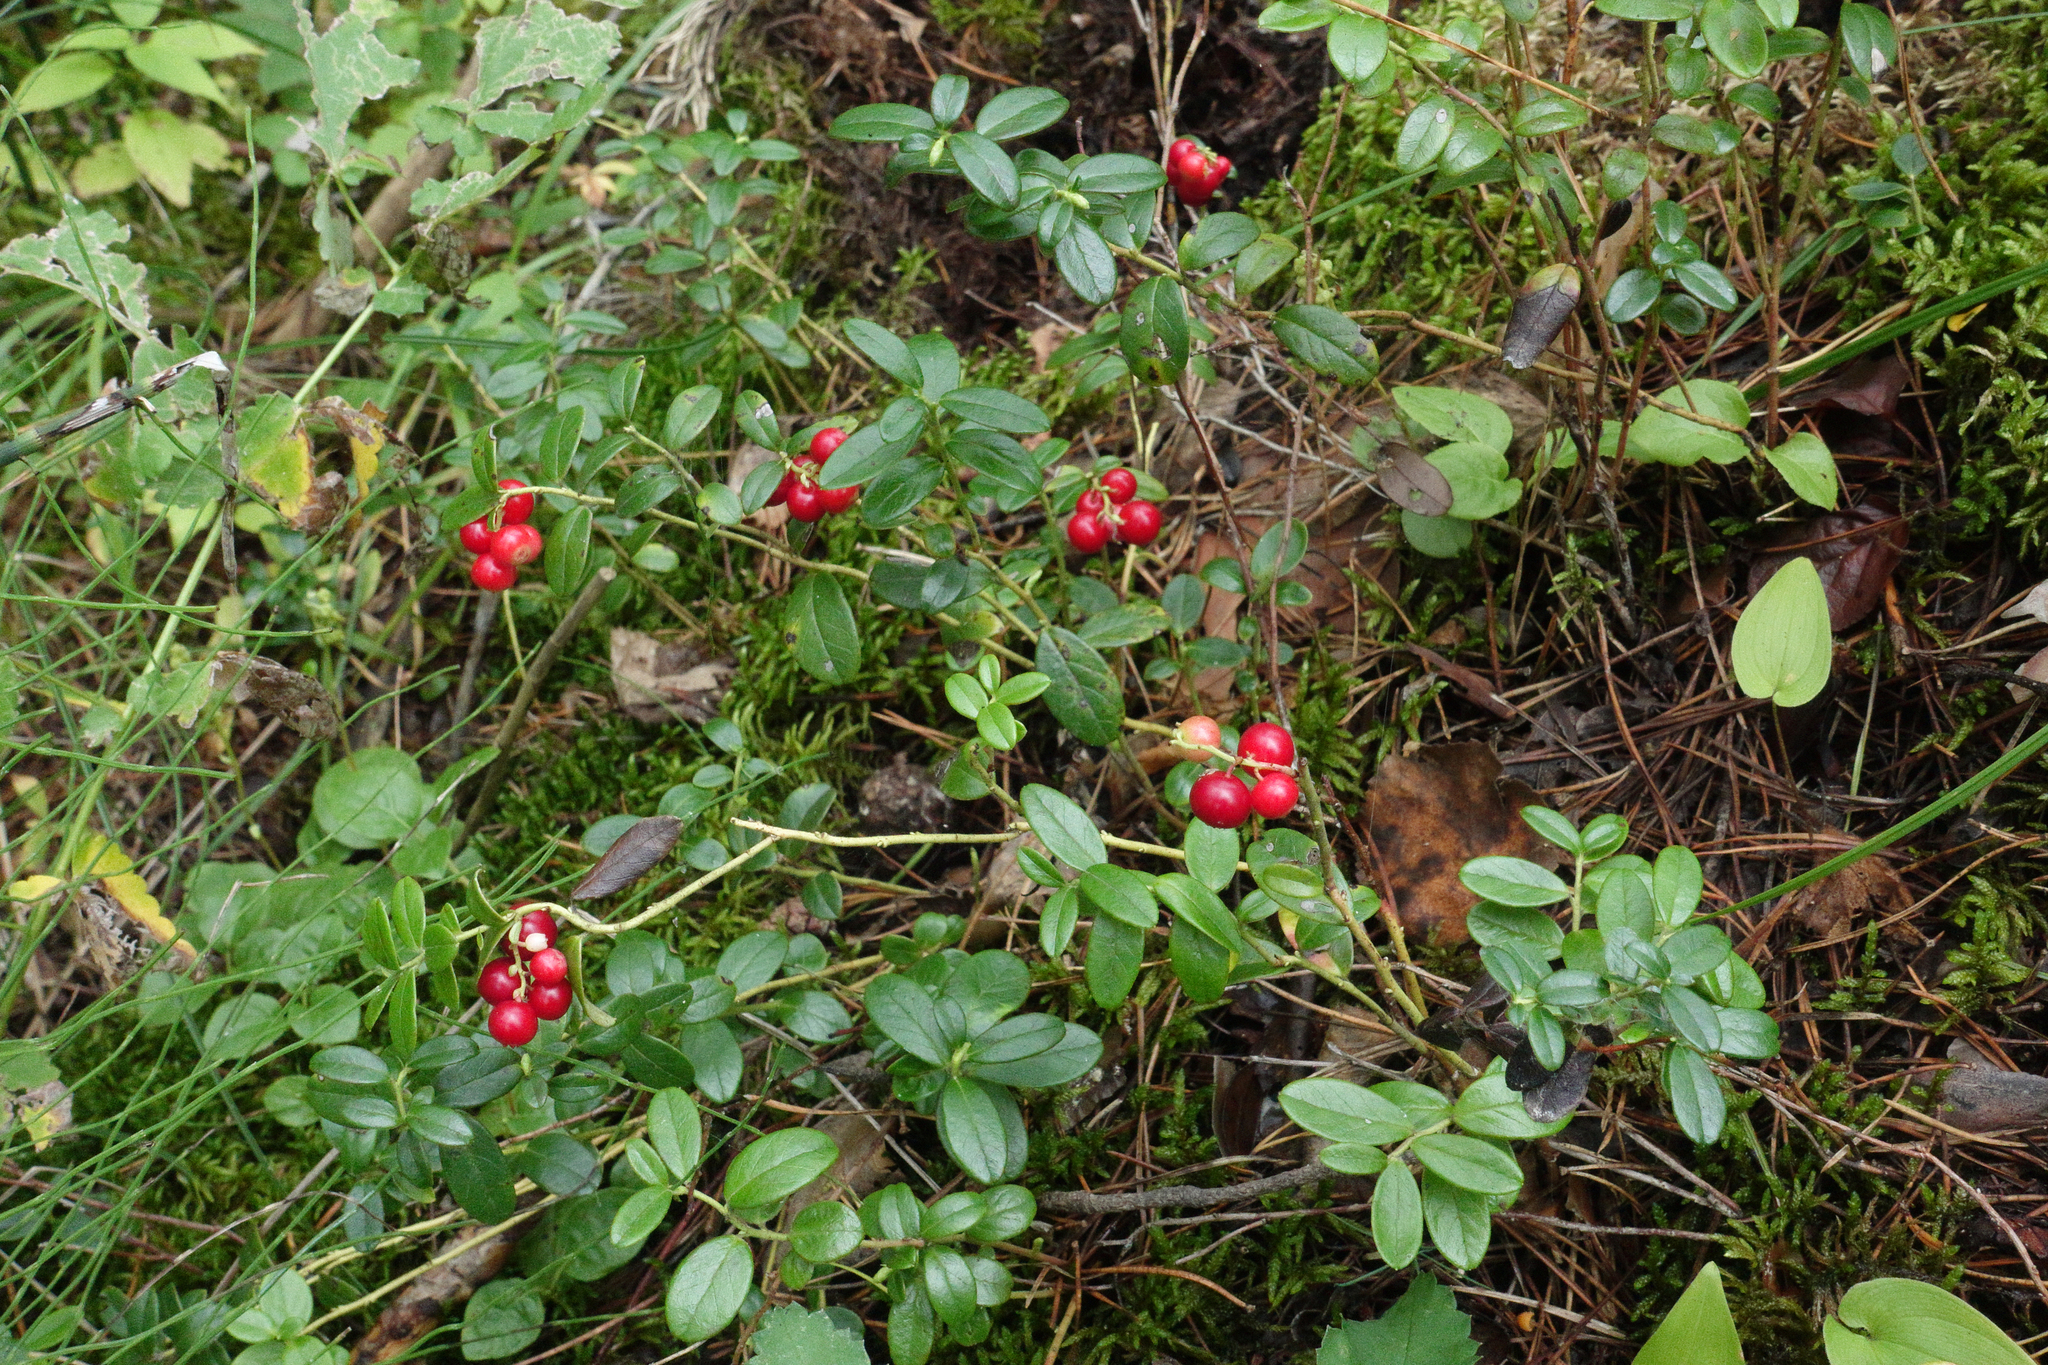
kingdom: Plantae
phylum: Tracheophyta
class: Magnoliopsida
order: Ericales
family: Ericaceae
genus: Vaccinium
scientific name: Vaccinium vitis-idaea
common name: Cowberry
